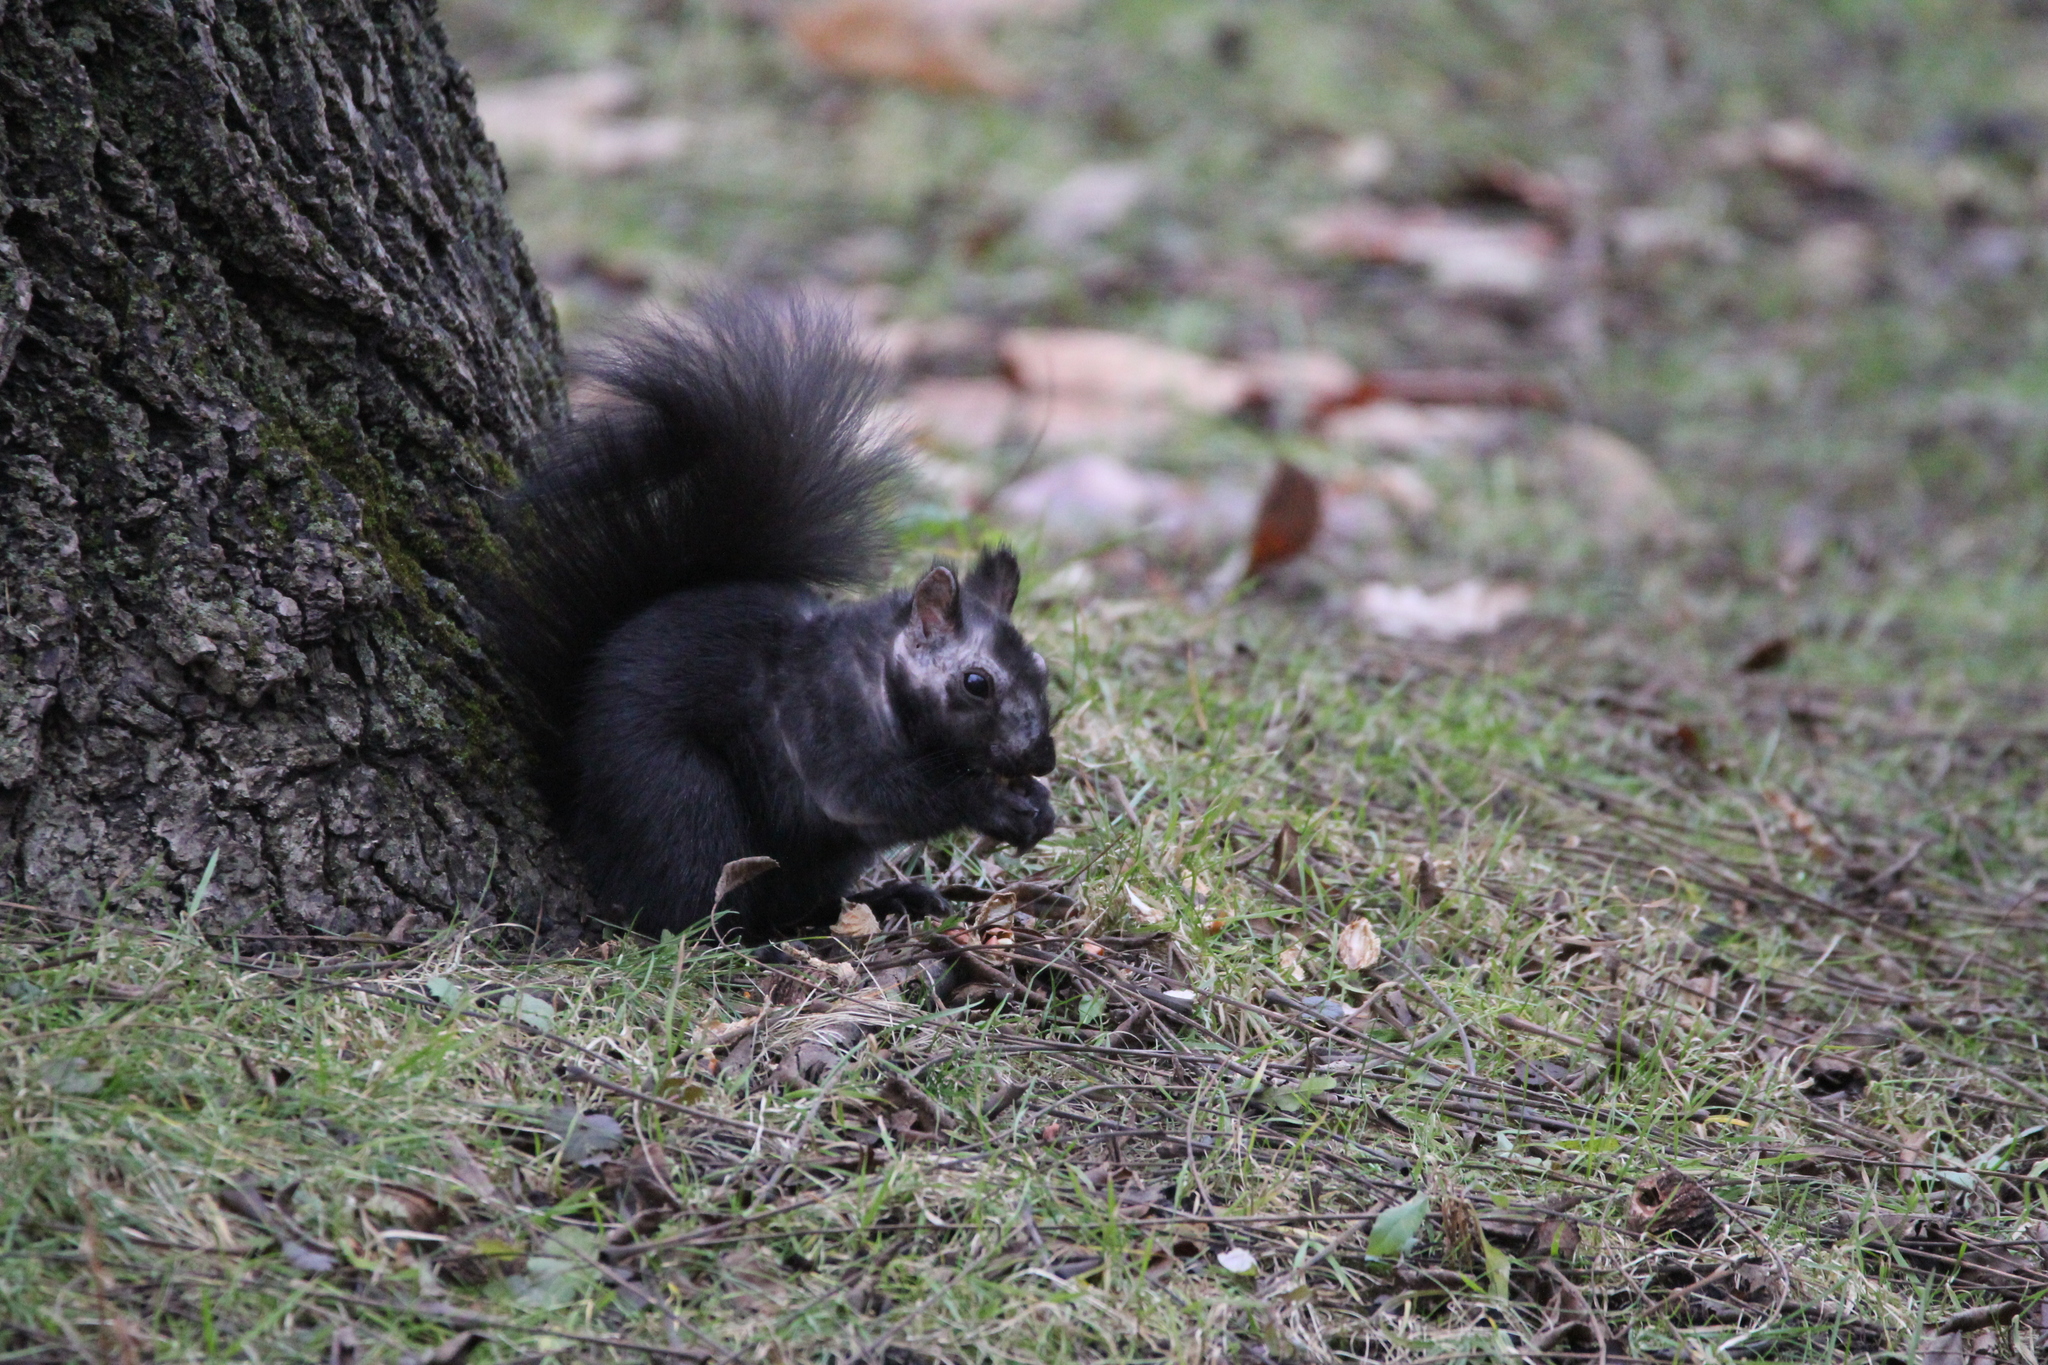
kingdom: Animalia
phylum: Chordata
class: Mammalia
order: Rodentia
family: Sciuridae
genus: Sciurus
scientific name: Sciurus carolinensis
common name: Eastern gray squirrel
